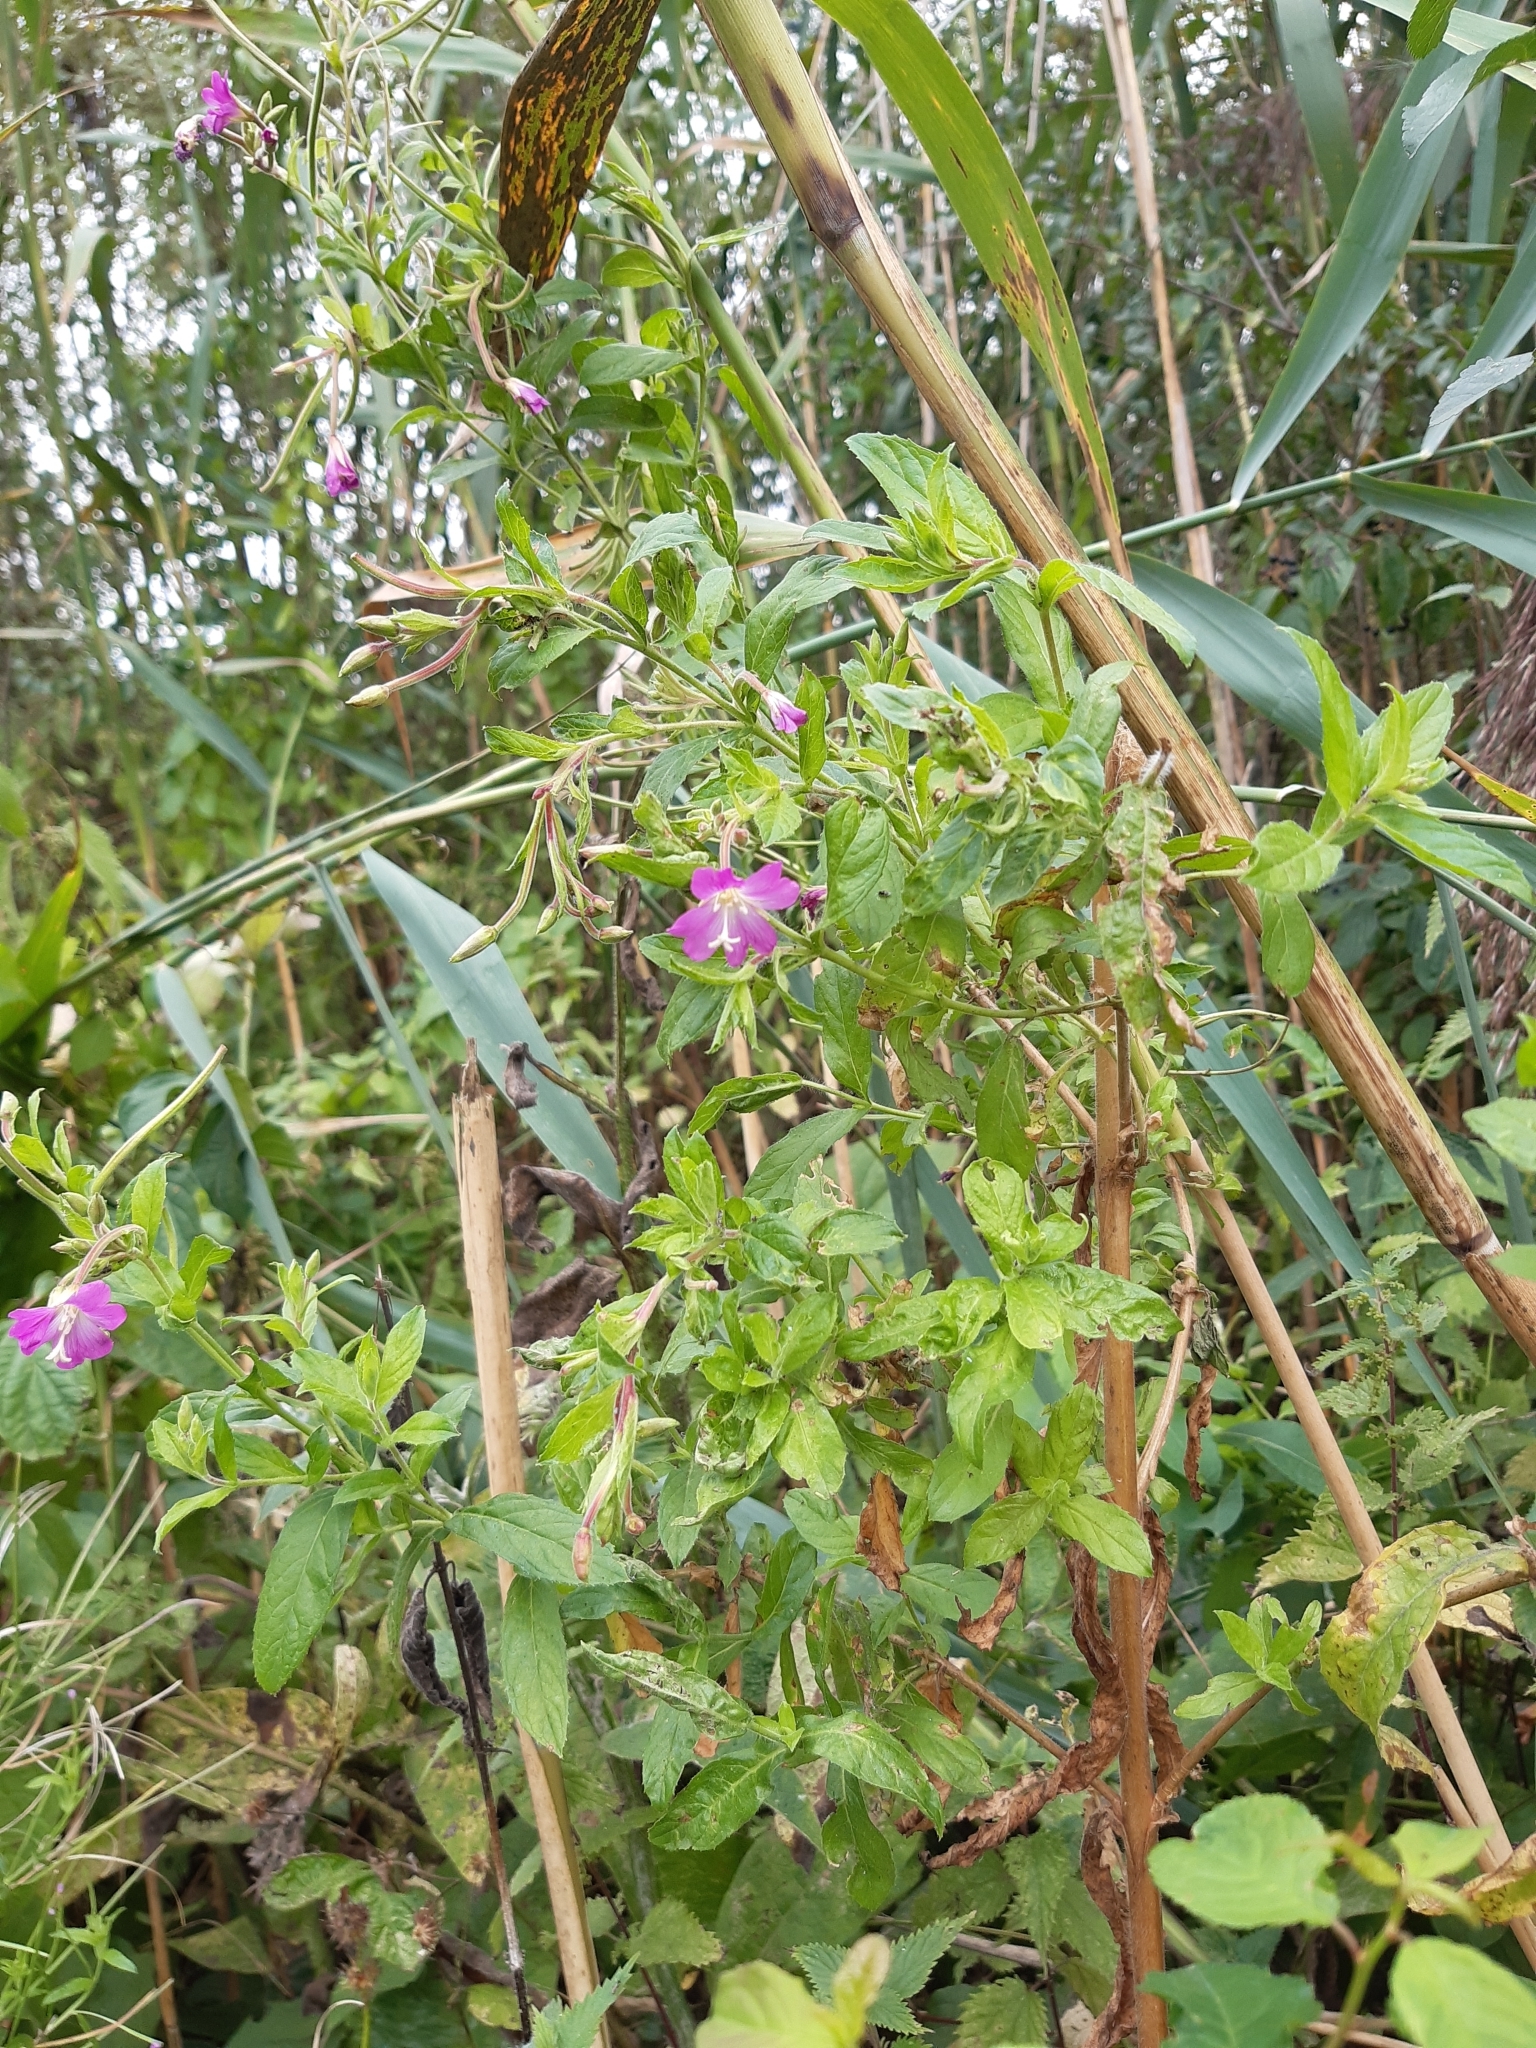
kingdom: Plantae
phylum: Tracheophyta
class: Magnoliopsida
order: Myrtales
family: Onagraceae
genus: Epilobium
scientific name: Epilobium hirsutum
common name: Great willowherb
